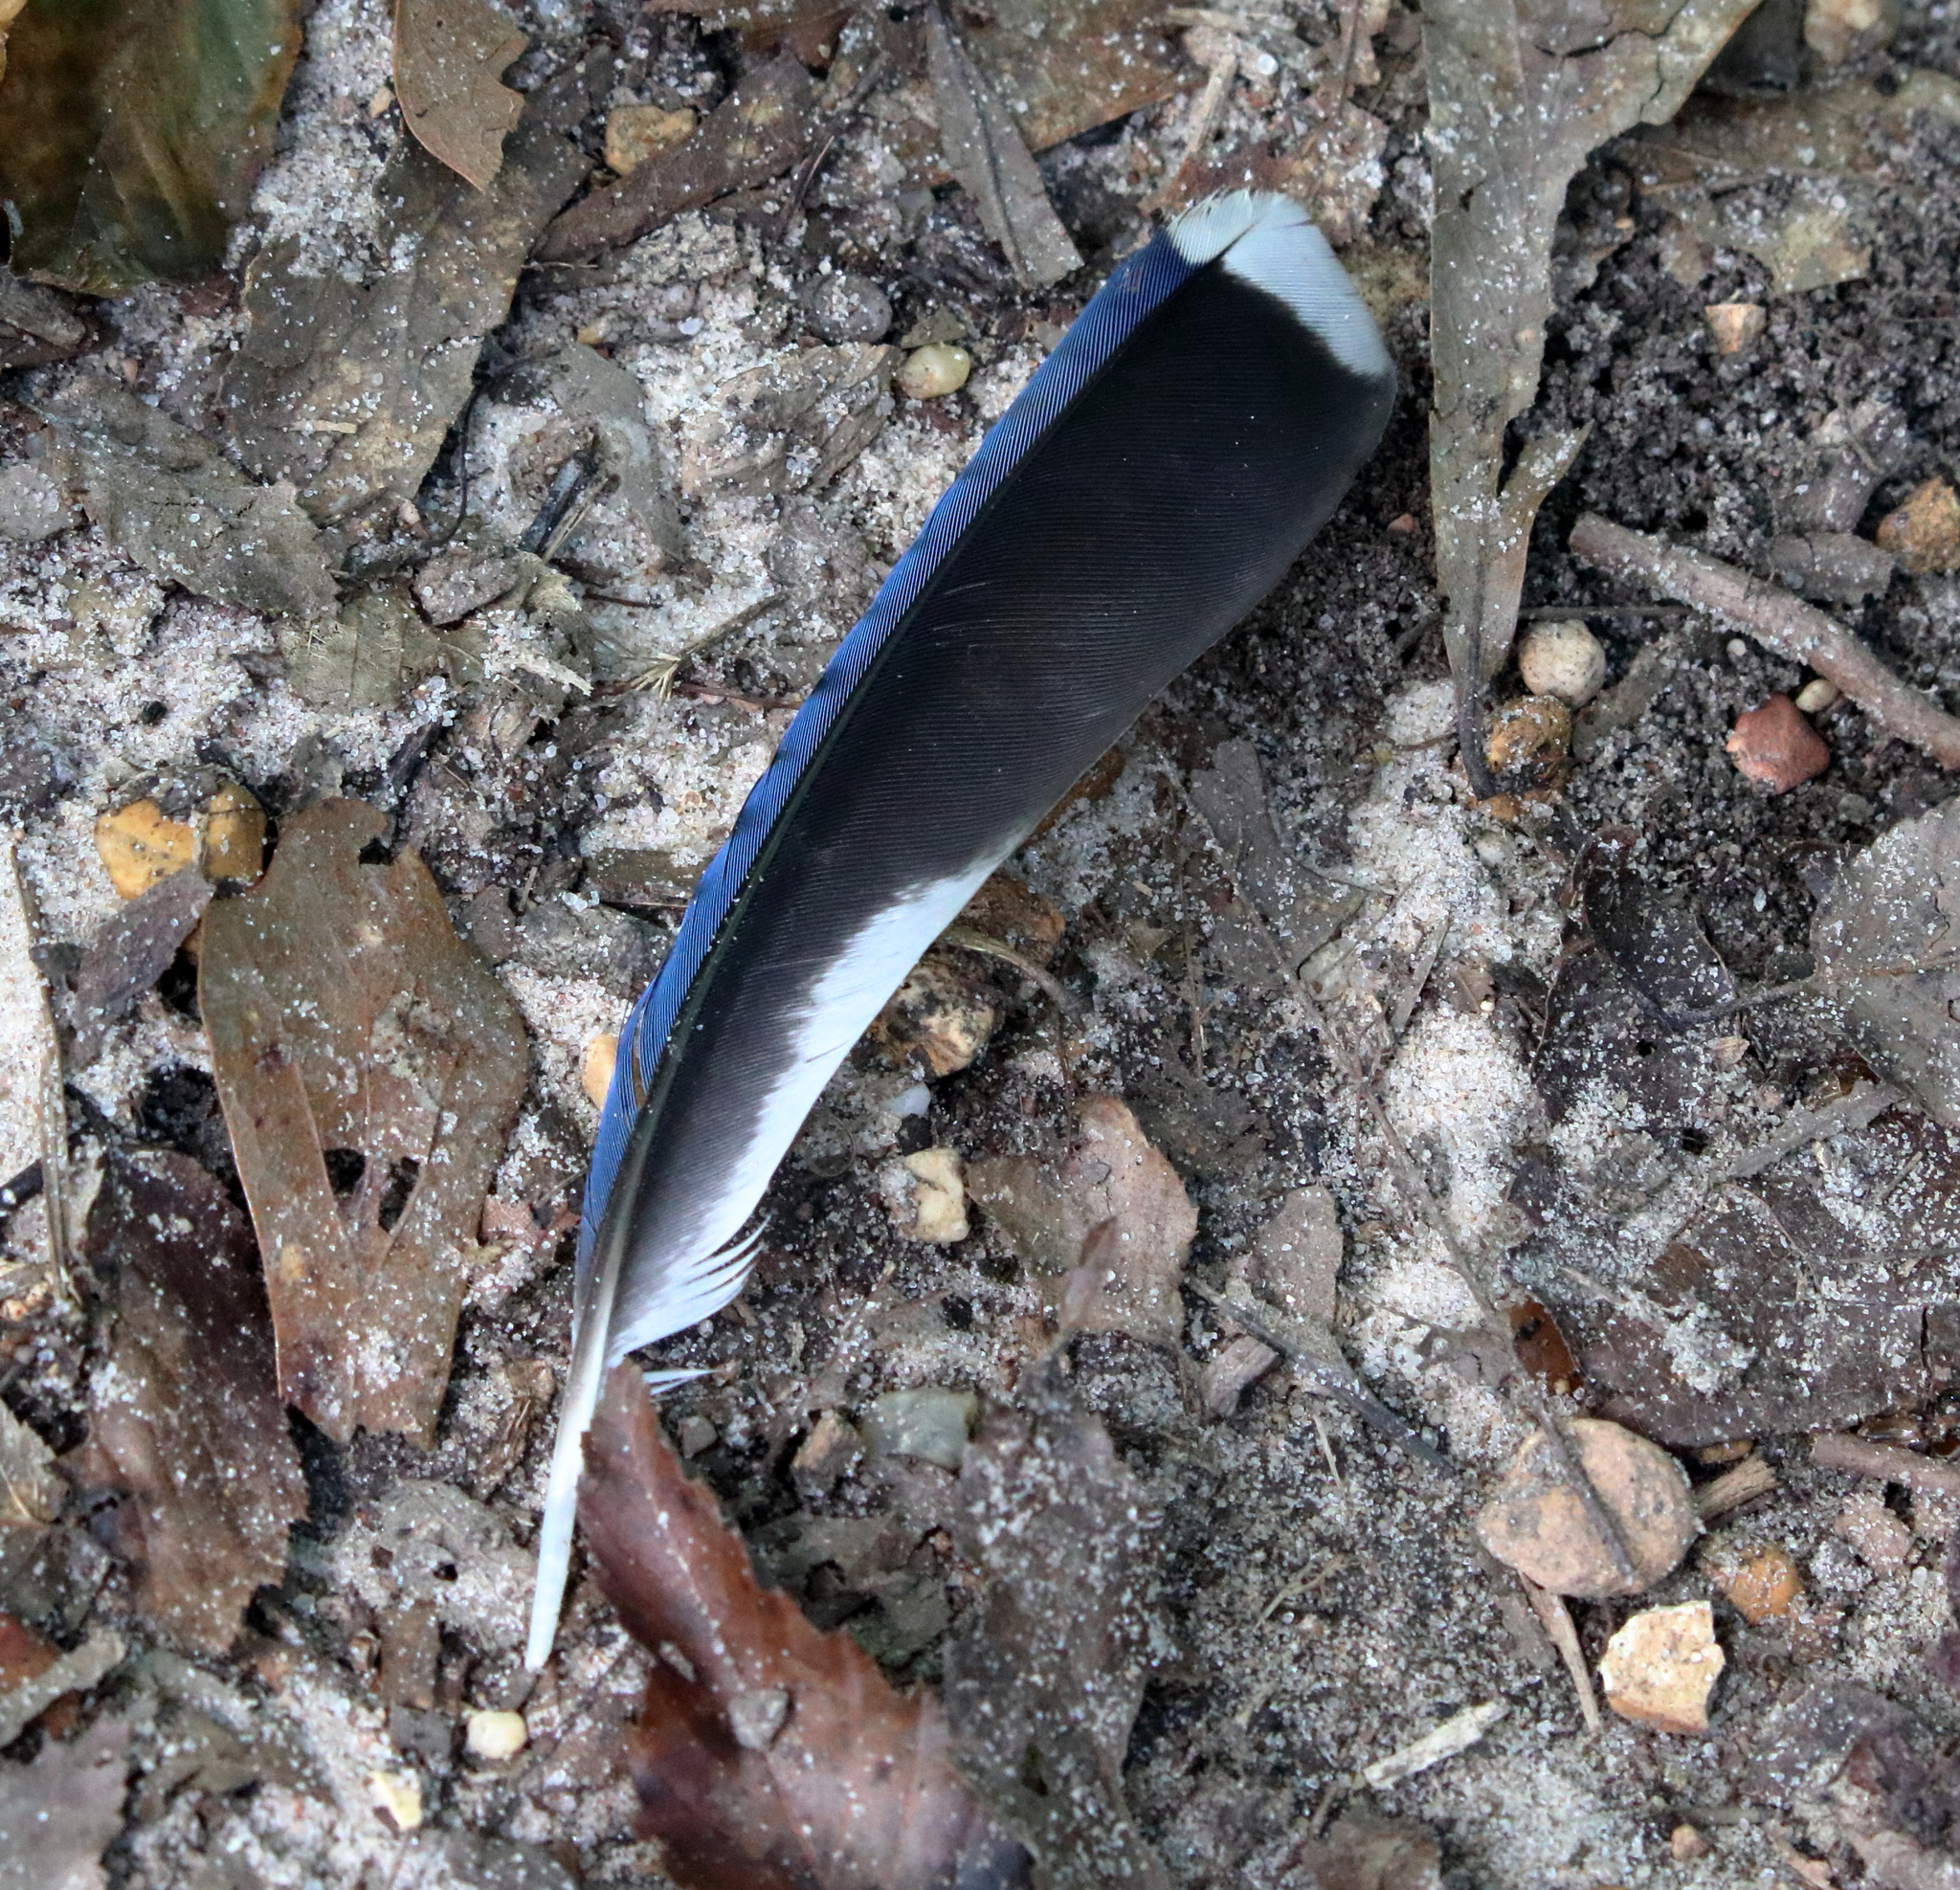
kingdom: Animalia
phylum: Chordata
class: Aves
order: Passeriformes
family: Corvidae
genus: Cyanocitta
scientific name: Cyanocitta cristata
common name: Blue jay
